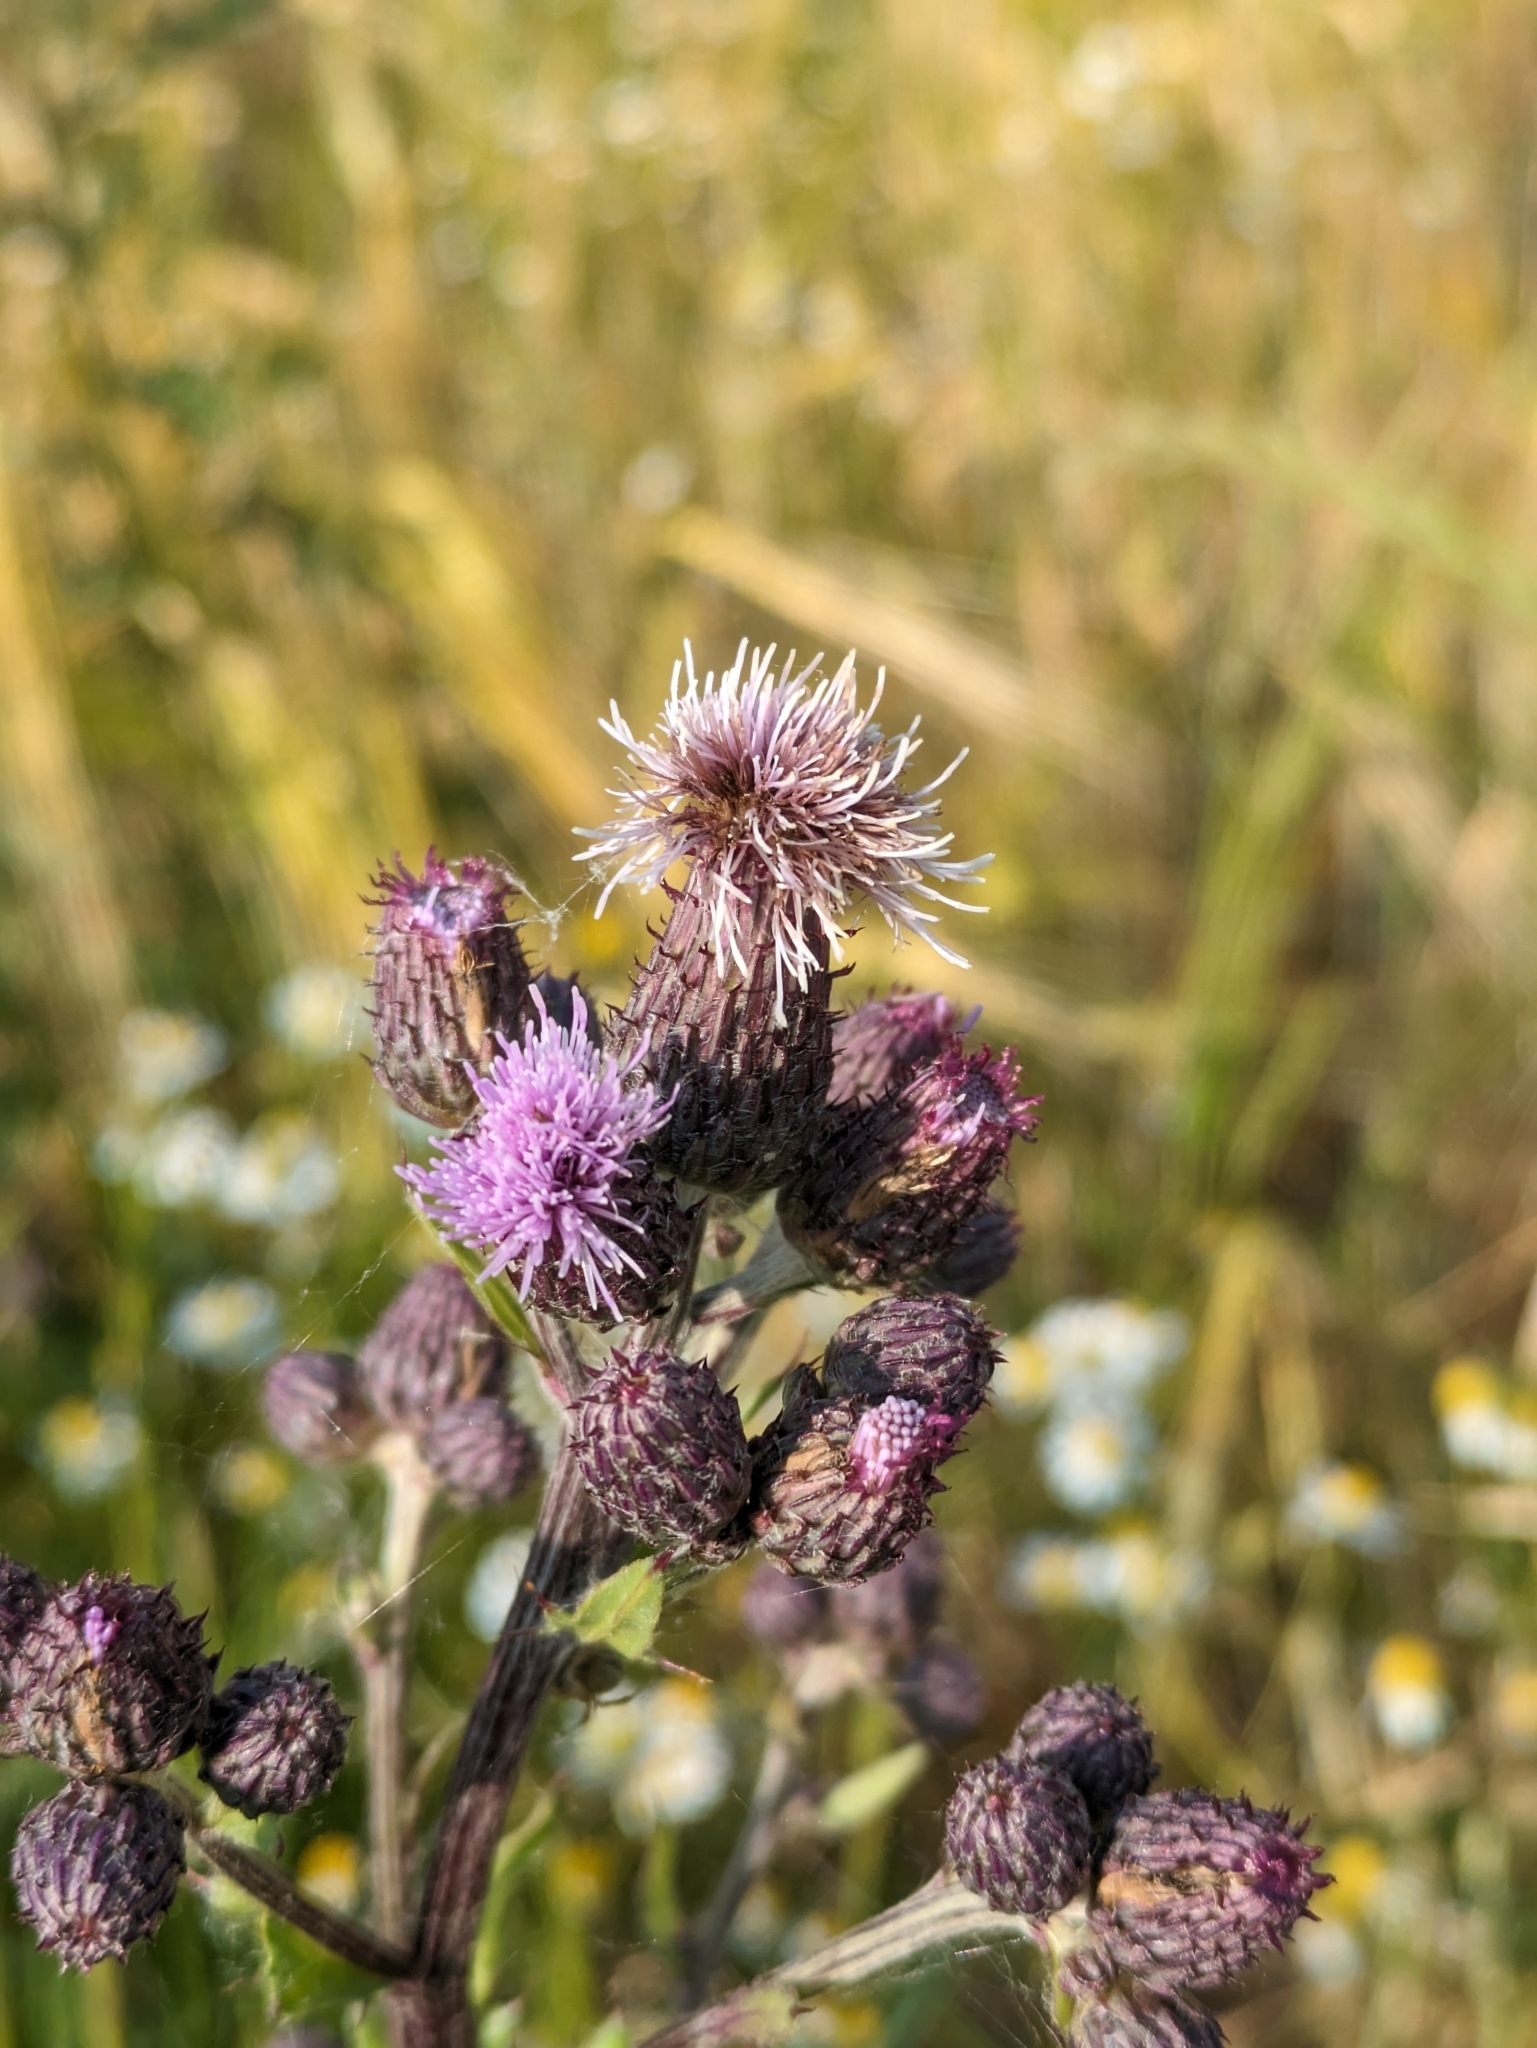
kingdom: Plantae
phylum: Tracheophyta
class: Magnoliopsida
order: Asterales
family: Asteraceae
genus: Cirsium
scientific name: Cirsium arvense
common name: Creeping thistle
